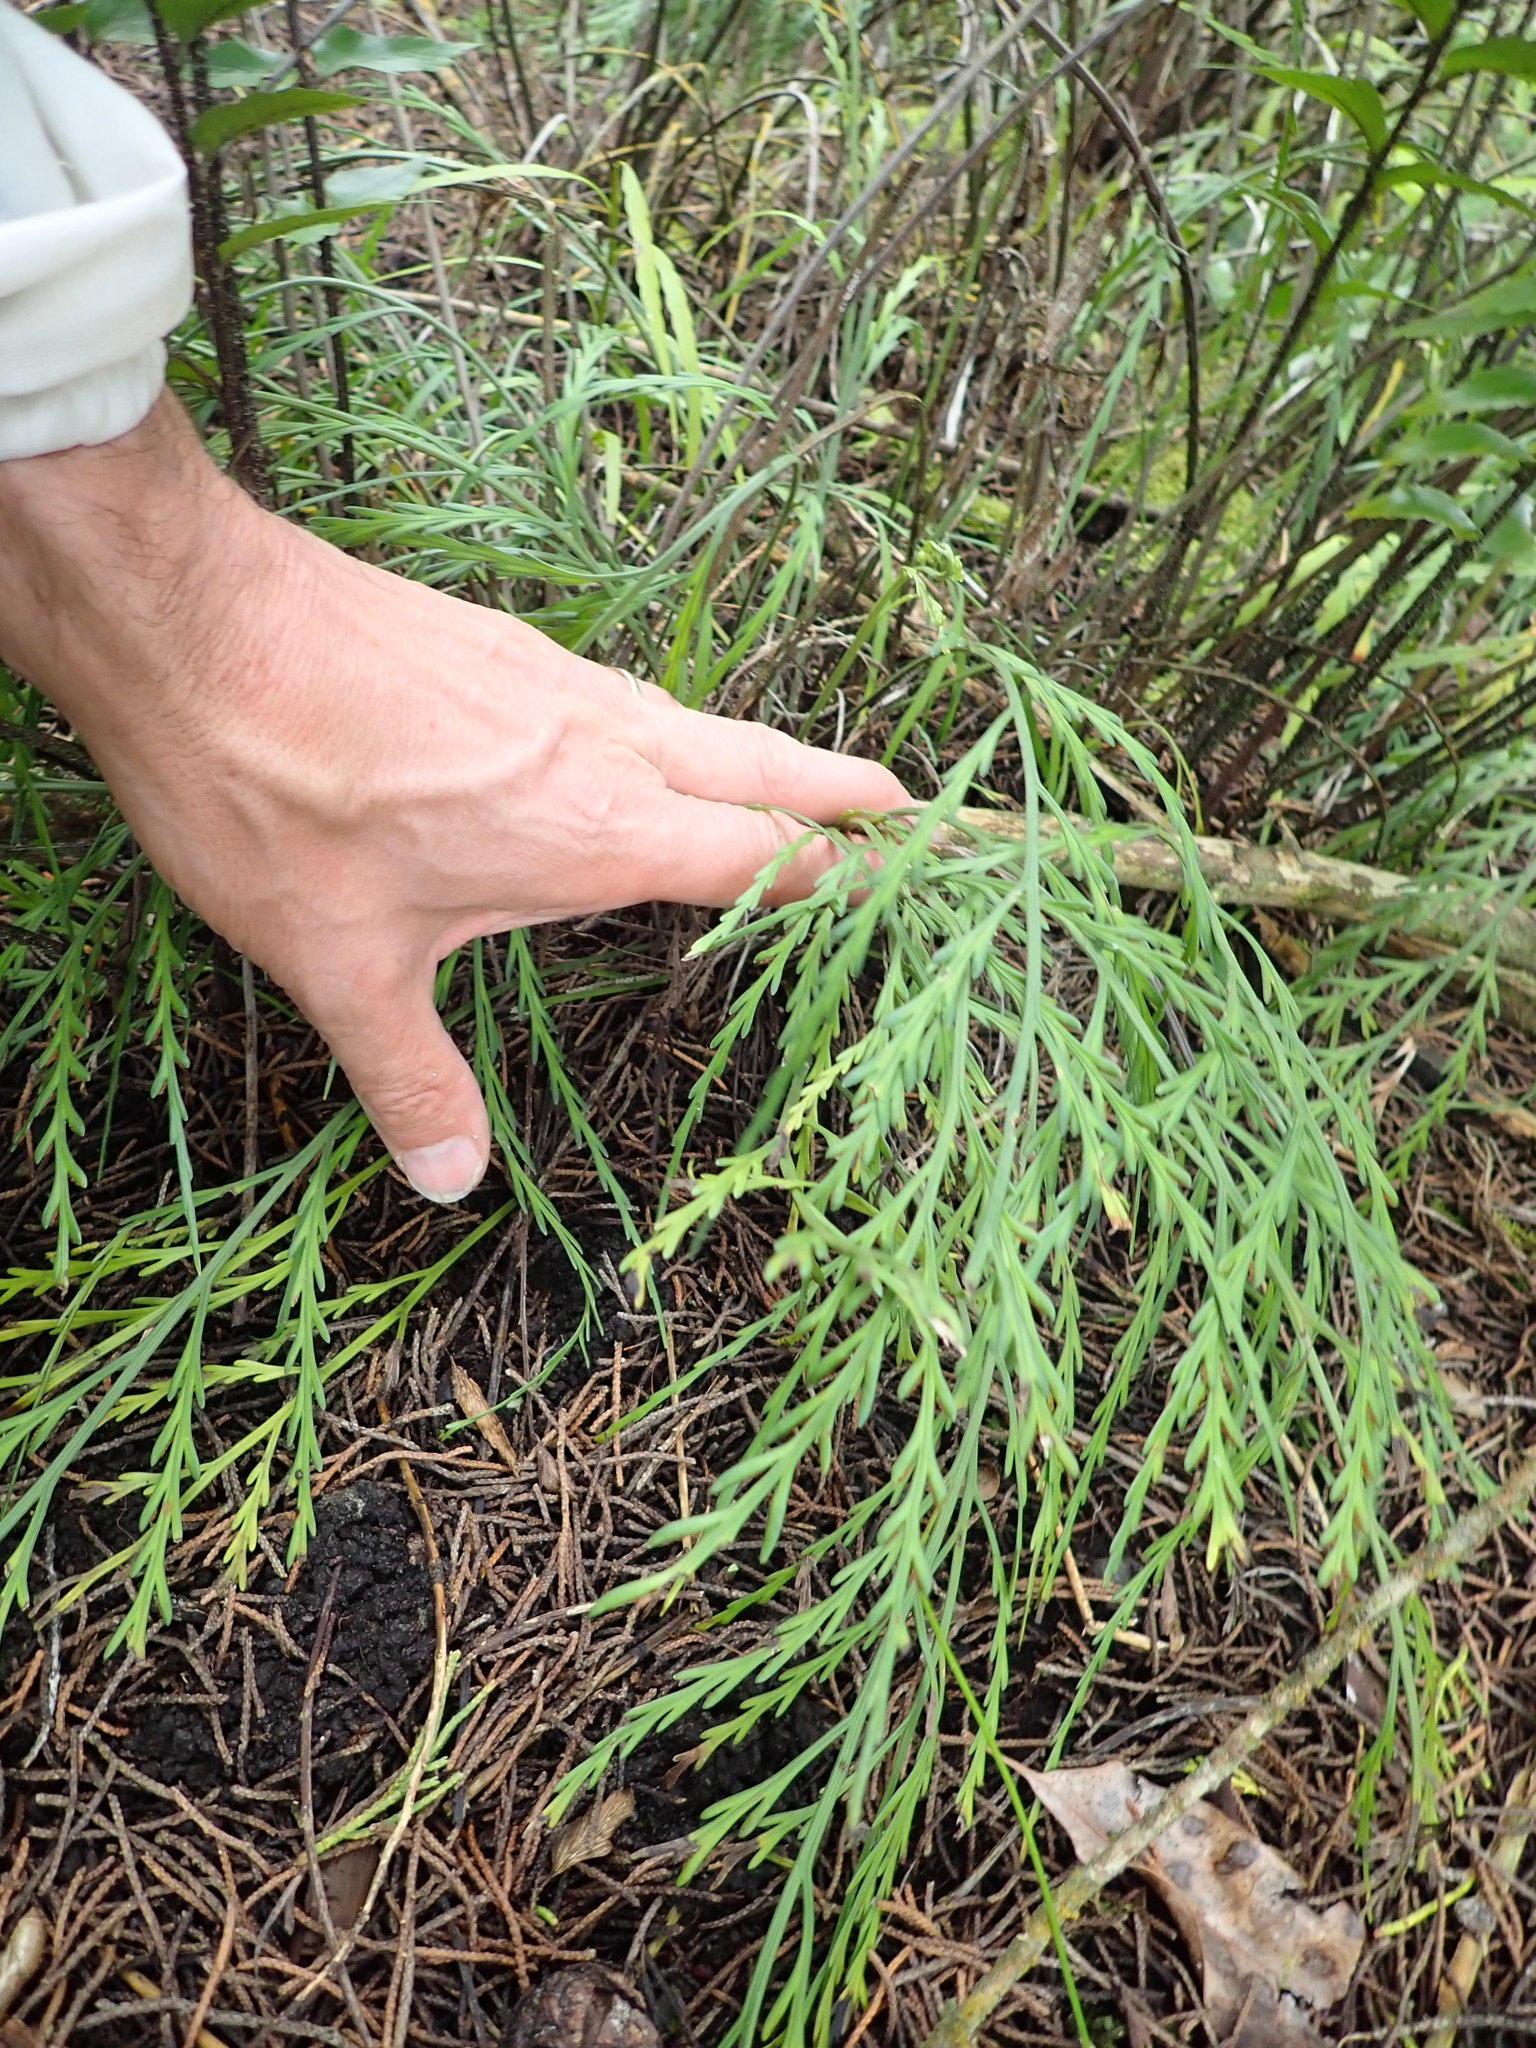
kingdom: Plantae
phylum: Tracheophyta
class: Polypodiopsida
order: Polypodiales
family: Aspleniaceae
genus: Asplenium
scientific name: Asplenium flaccidum
